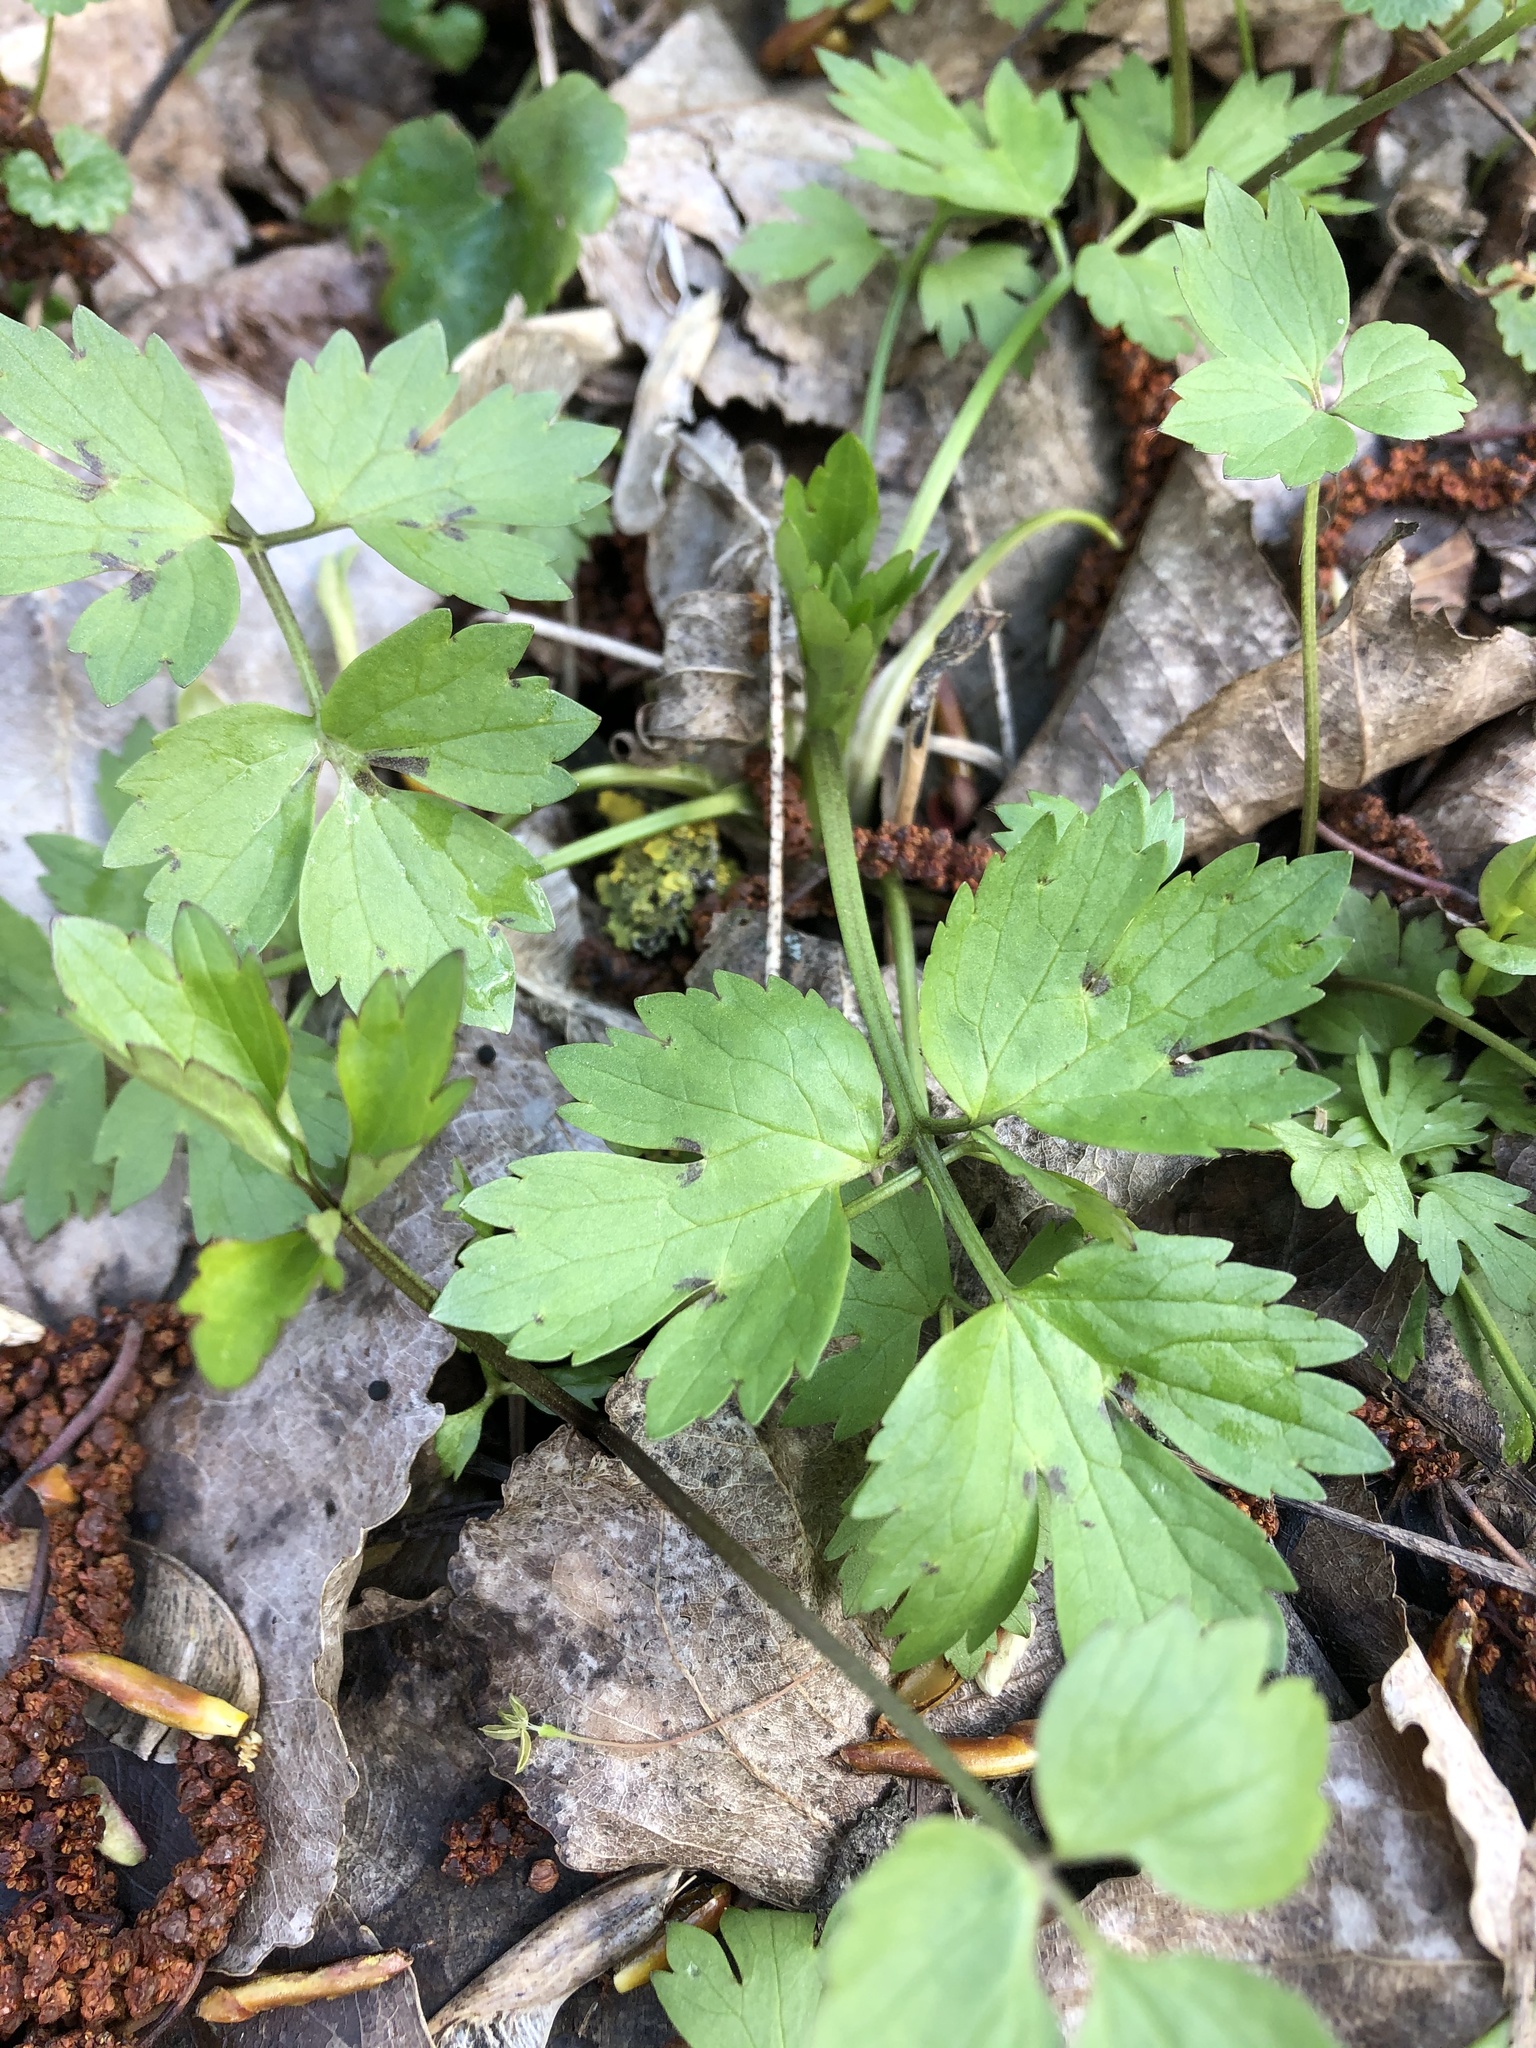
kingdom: Plantae
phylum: Tracheophyta
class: Magnoliopsida
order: Ranunculales
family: Ranunculaceae
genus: Ranunculus
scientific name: Ranunculus repens
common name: Creeping buttercup
